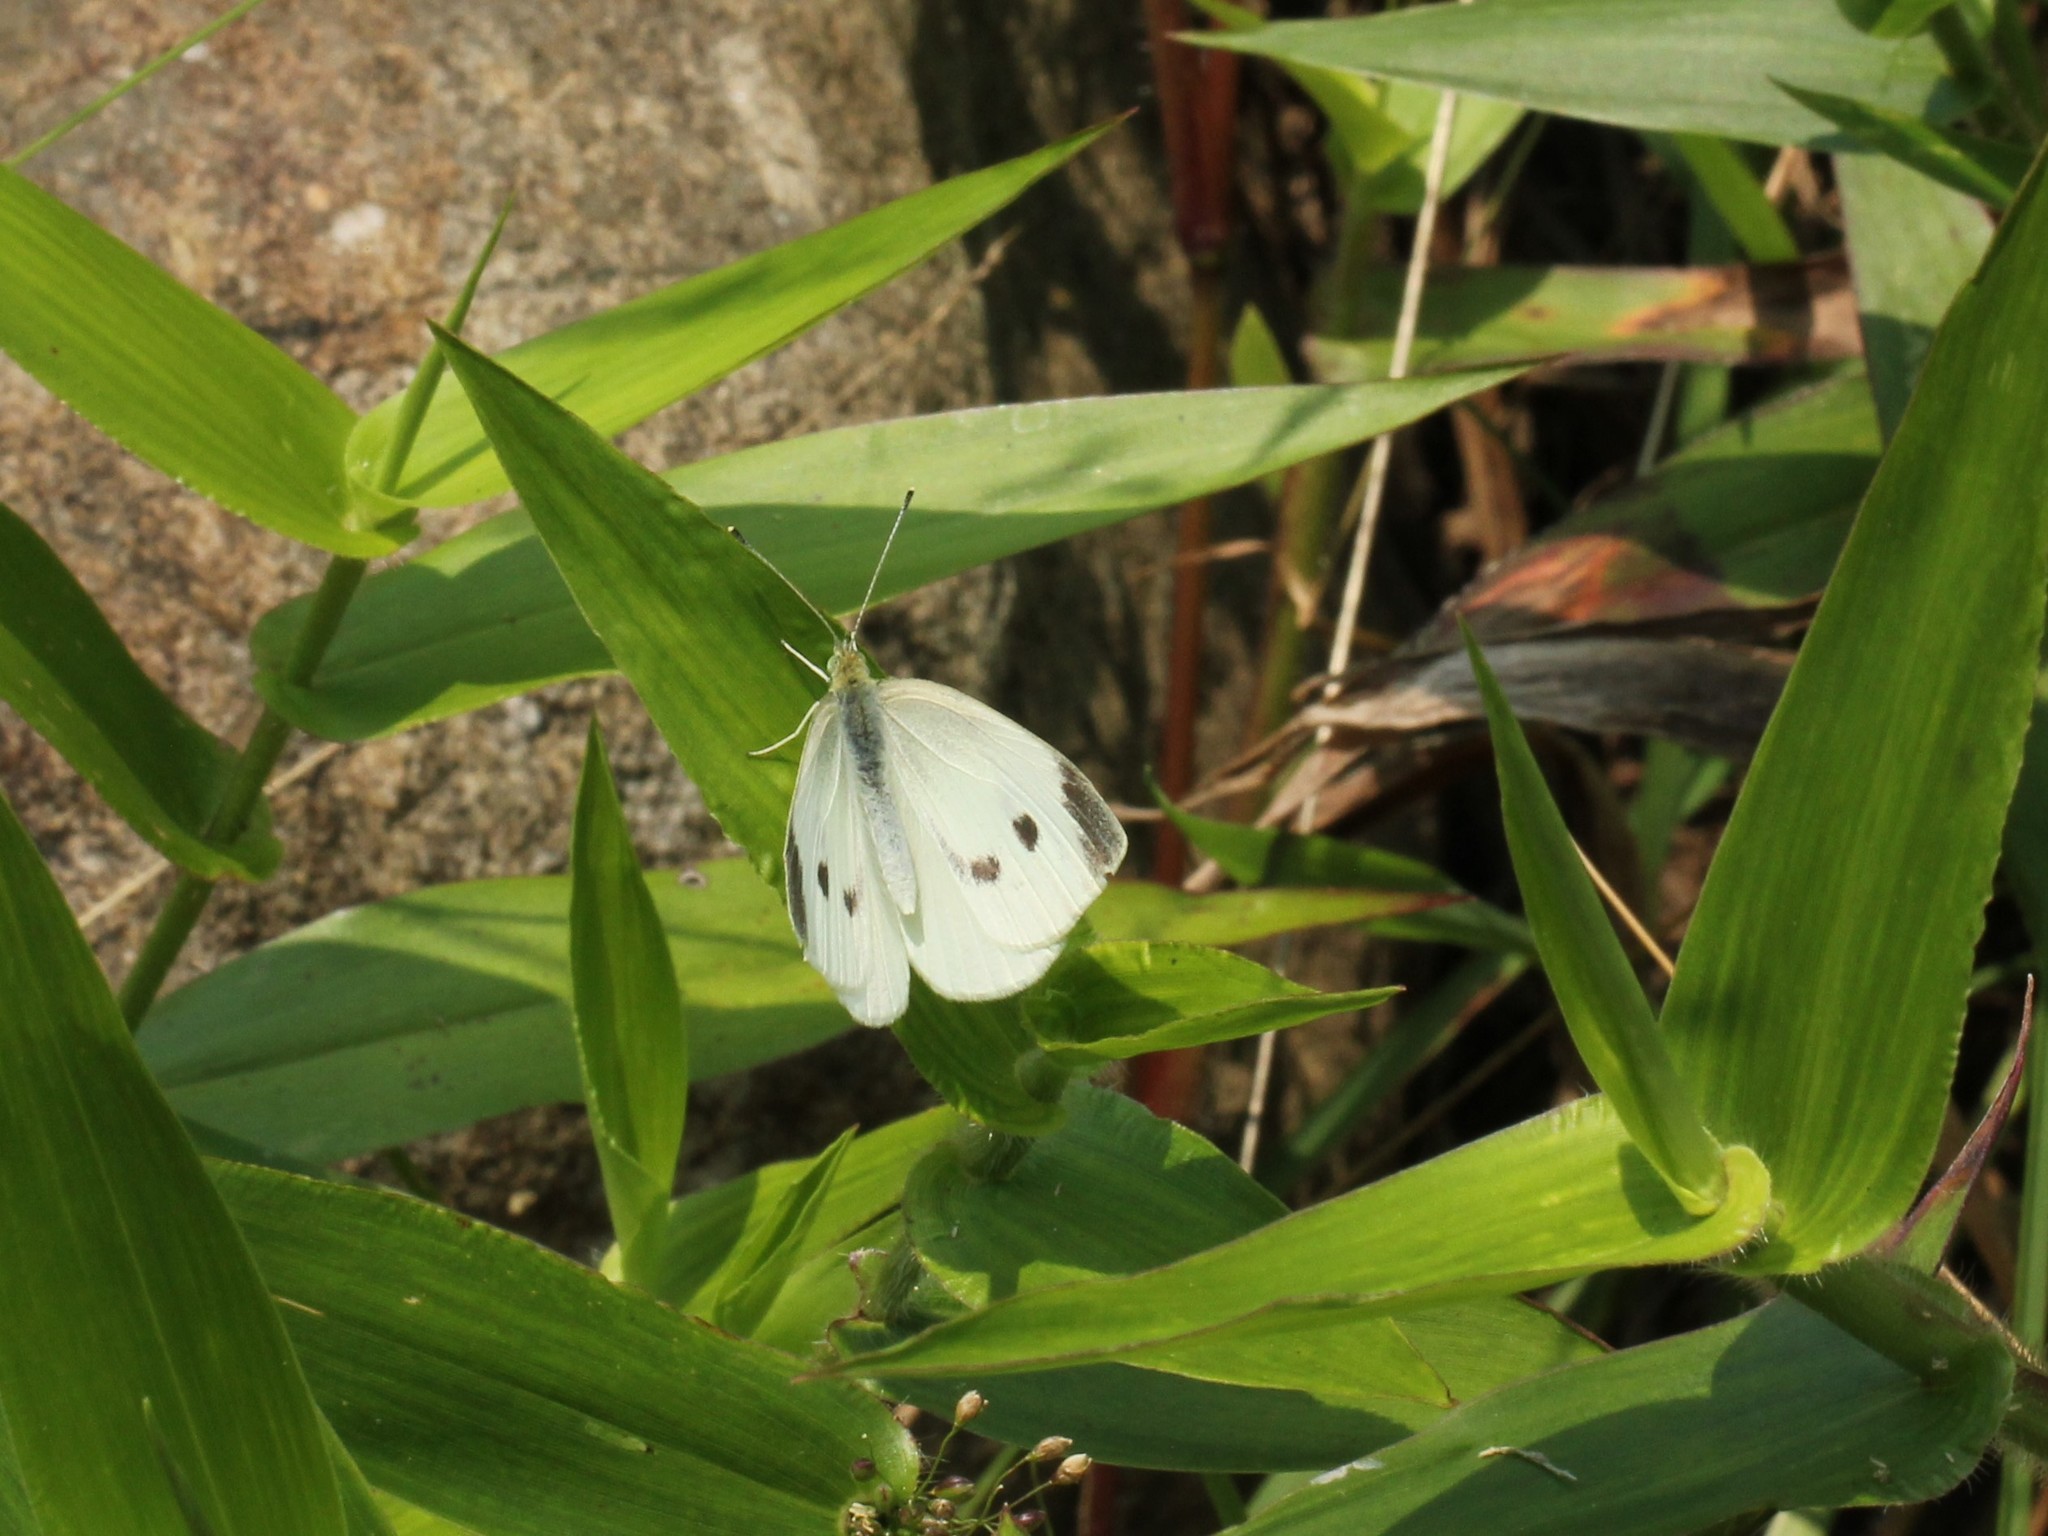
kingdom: Animalia
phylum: Arthropoda
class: Insecta
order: Lepidoptera
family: Pieridae
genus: Pieris
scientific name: Pieris rapae
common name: Small white
